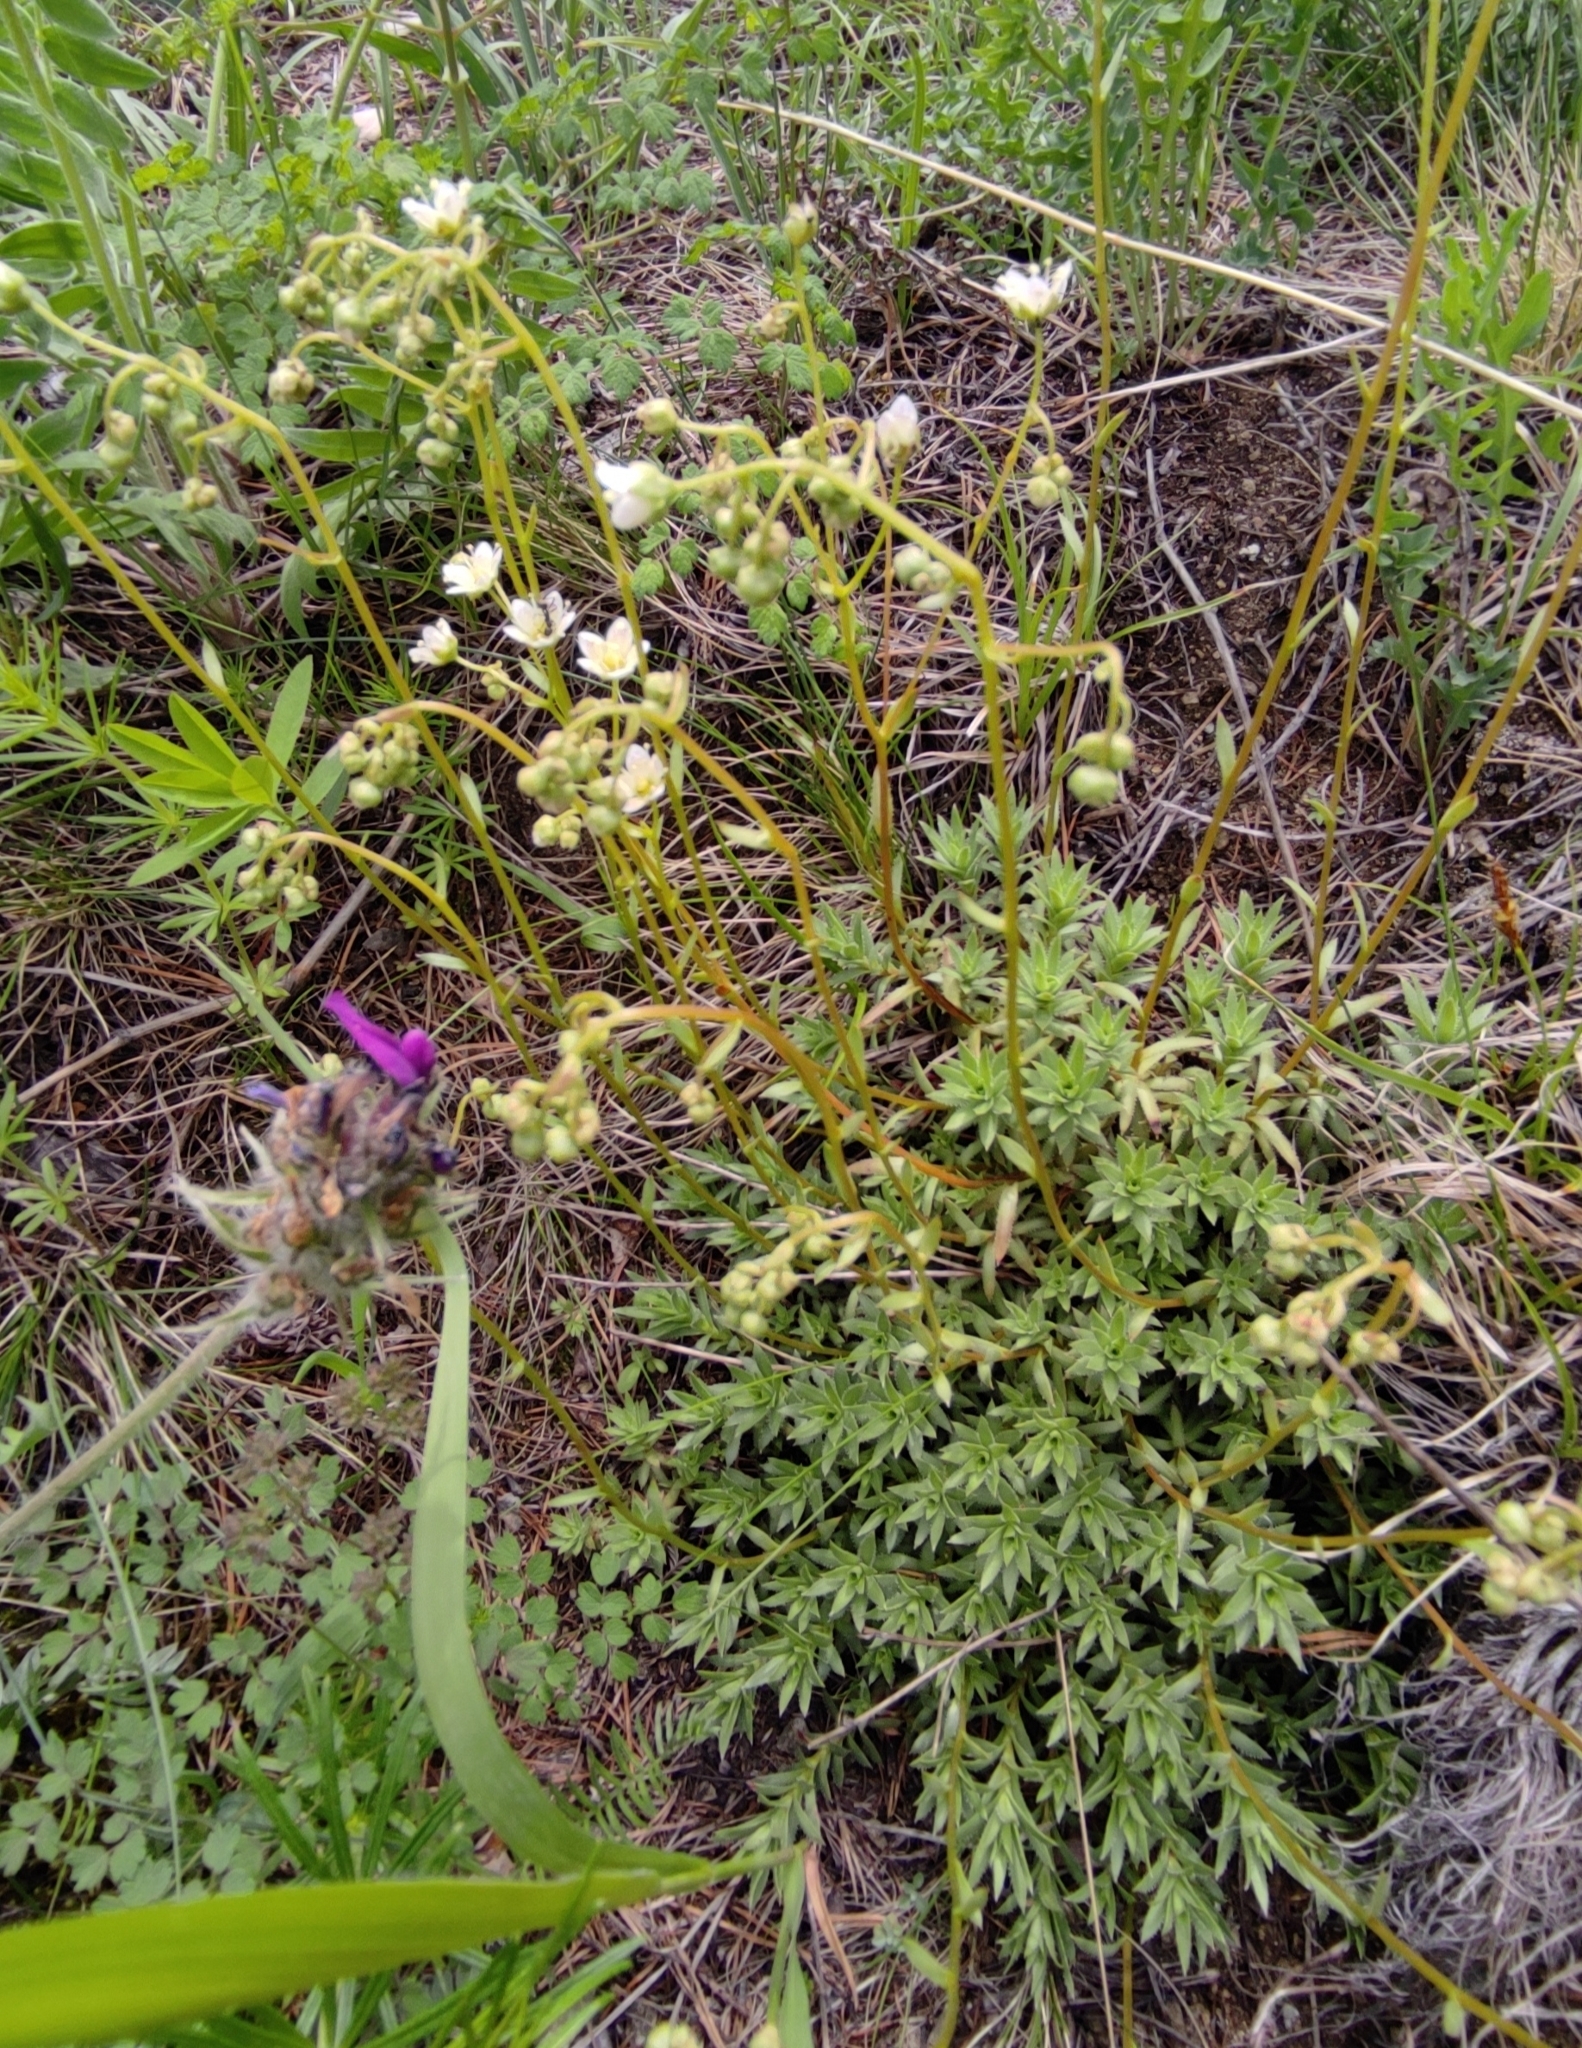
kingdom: Plantae
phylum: Tracheophyta
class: Magnoliopsida
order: Saxifragales
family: Saxifragaceae
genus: Saxifraga
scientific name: Saxifraga
